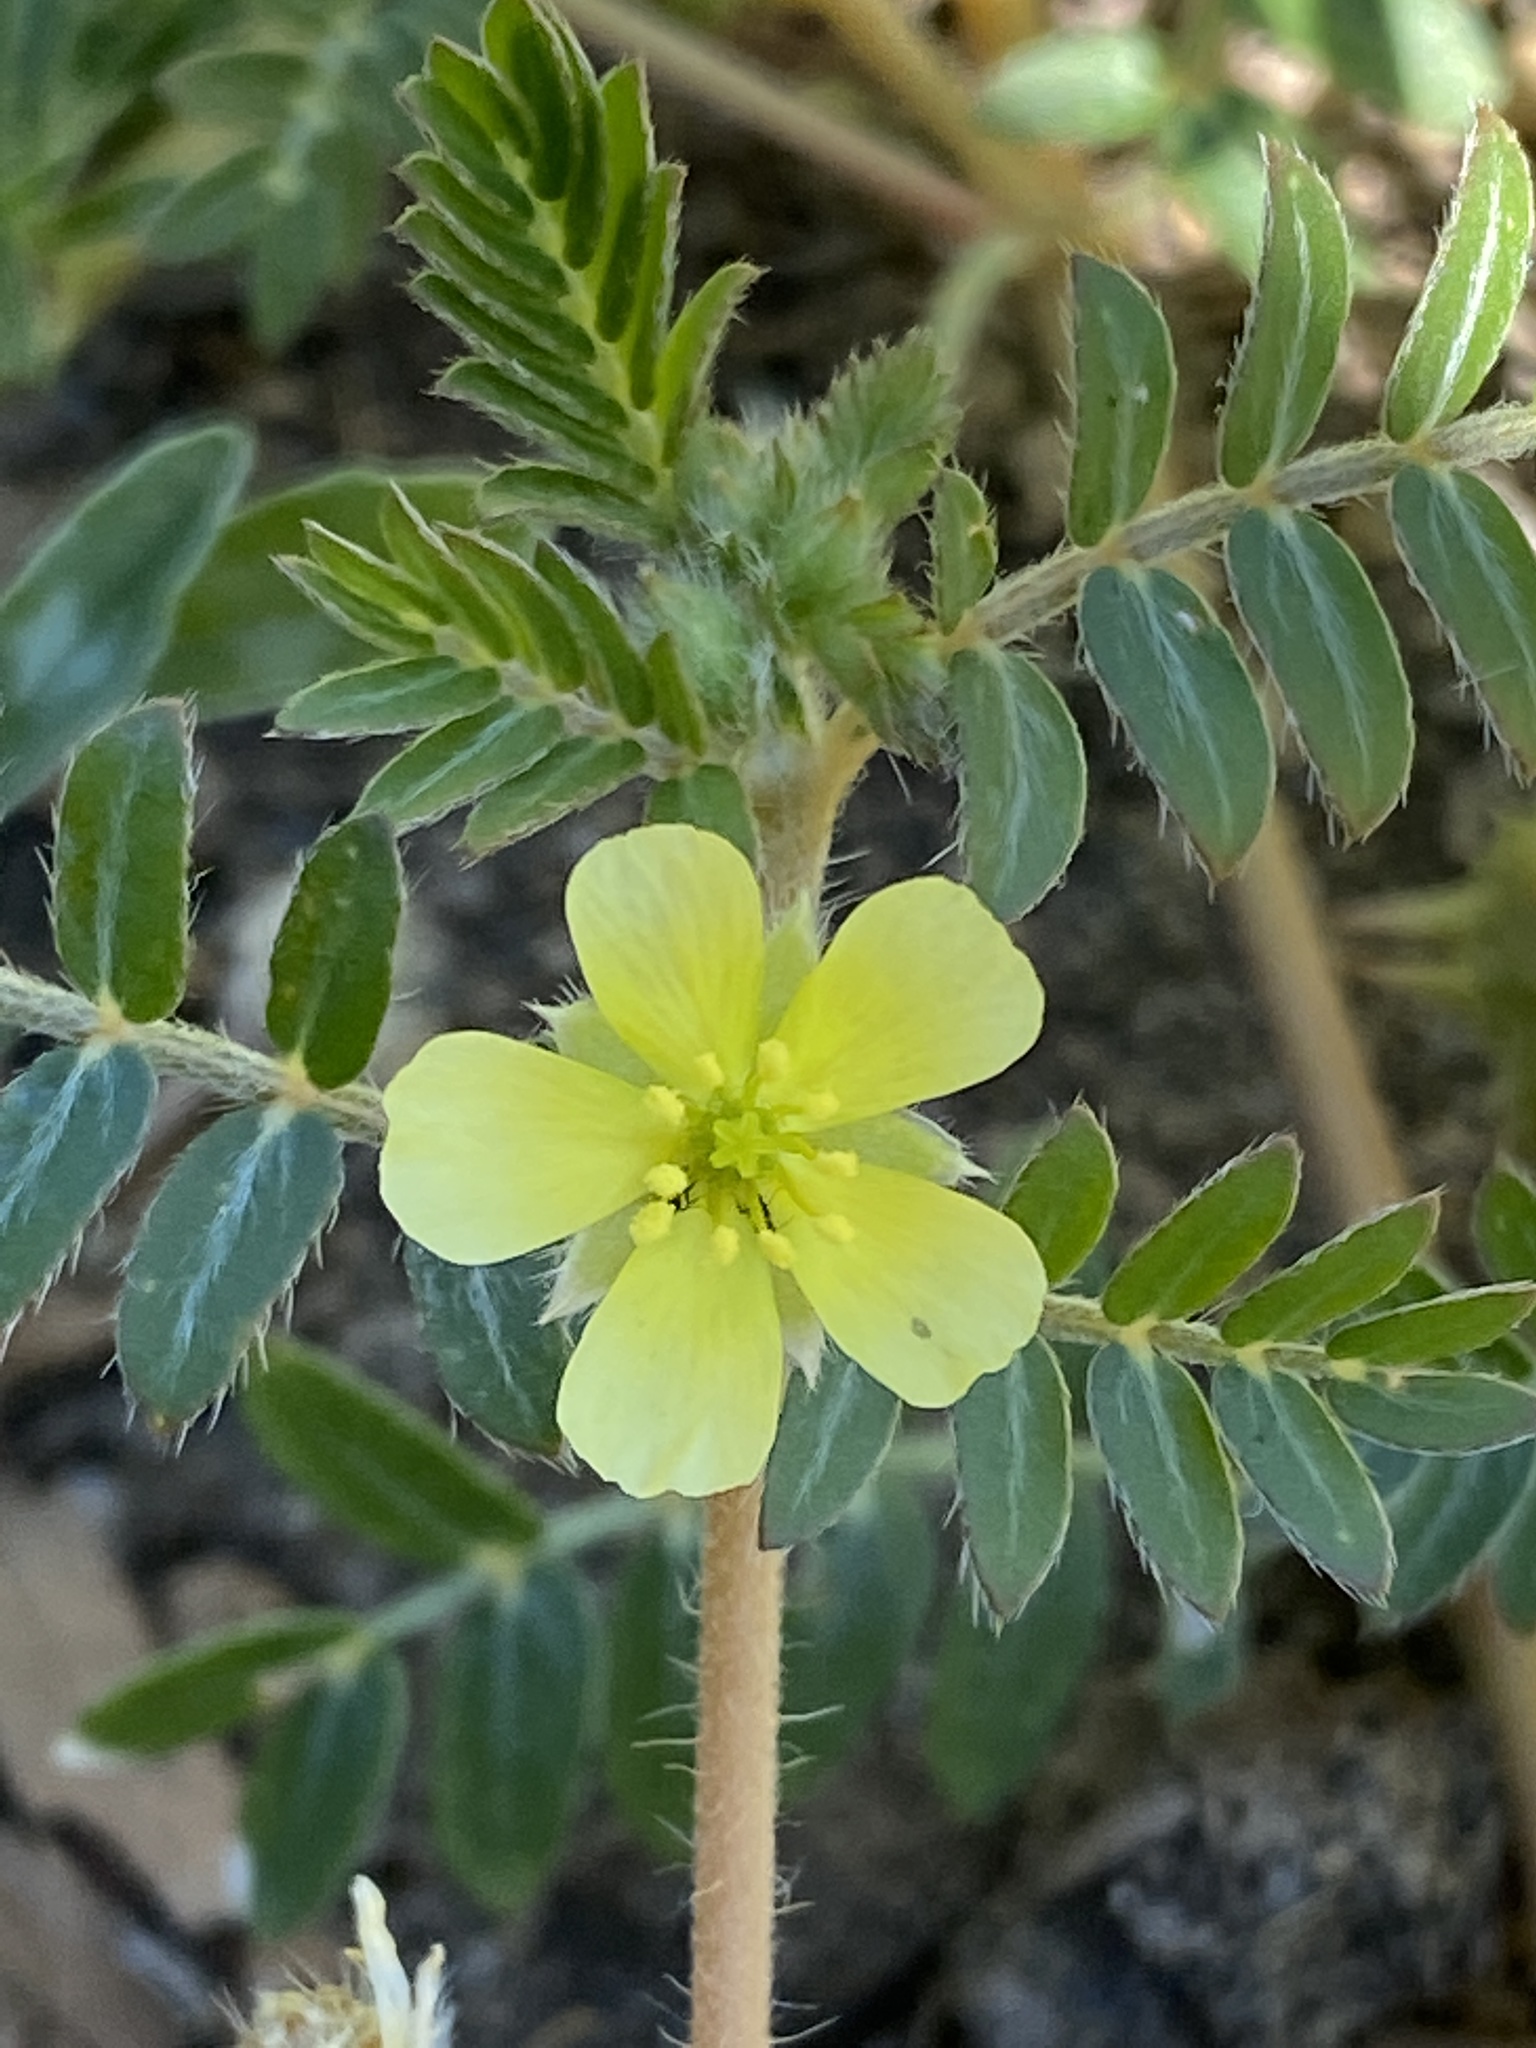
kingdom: Plantae
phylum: Tracheophyta
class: Magnoliopsida
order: Zygophyllales
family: Zygophyllaceae
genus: Tribulus
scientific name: Tribulus terrestris
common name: Puncturevine
